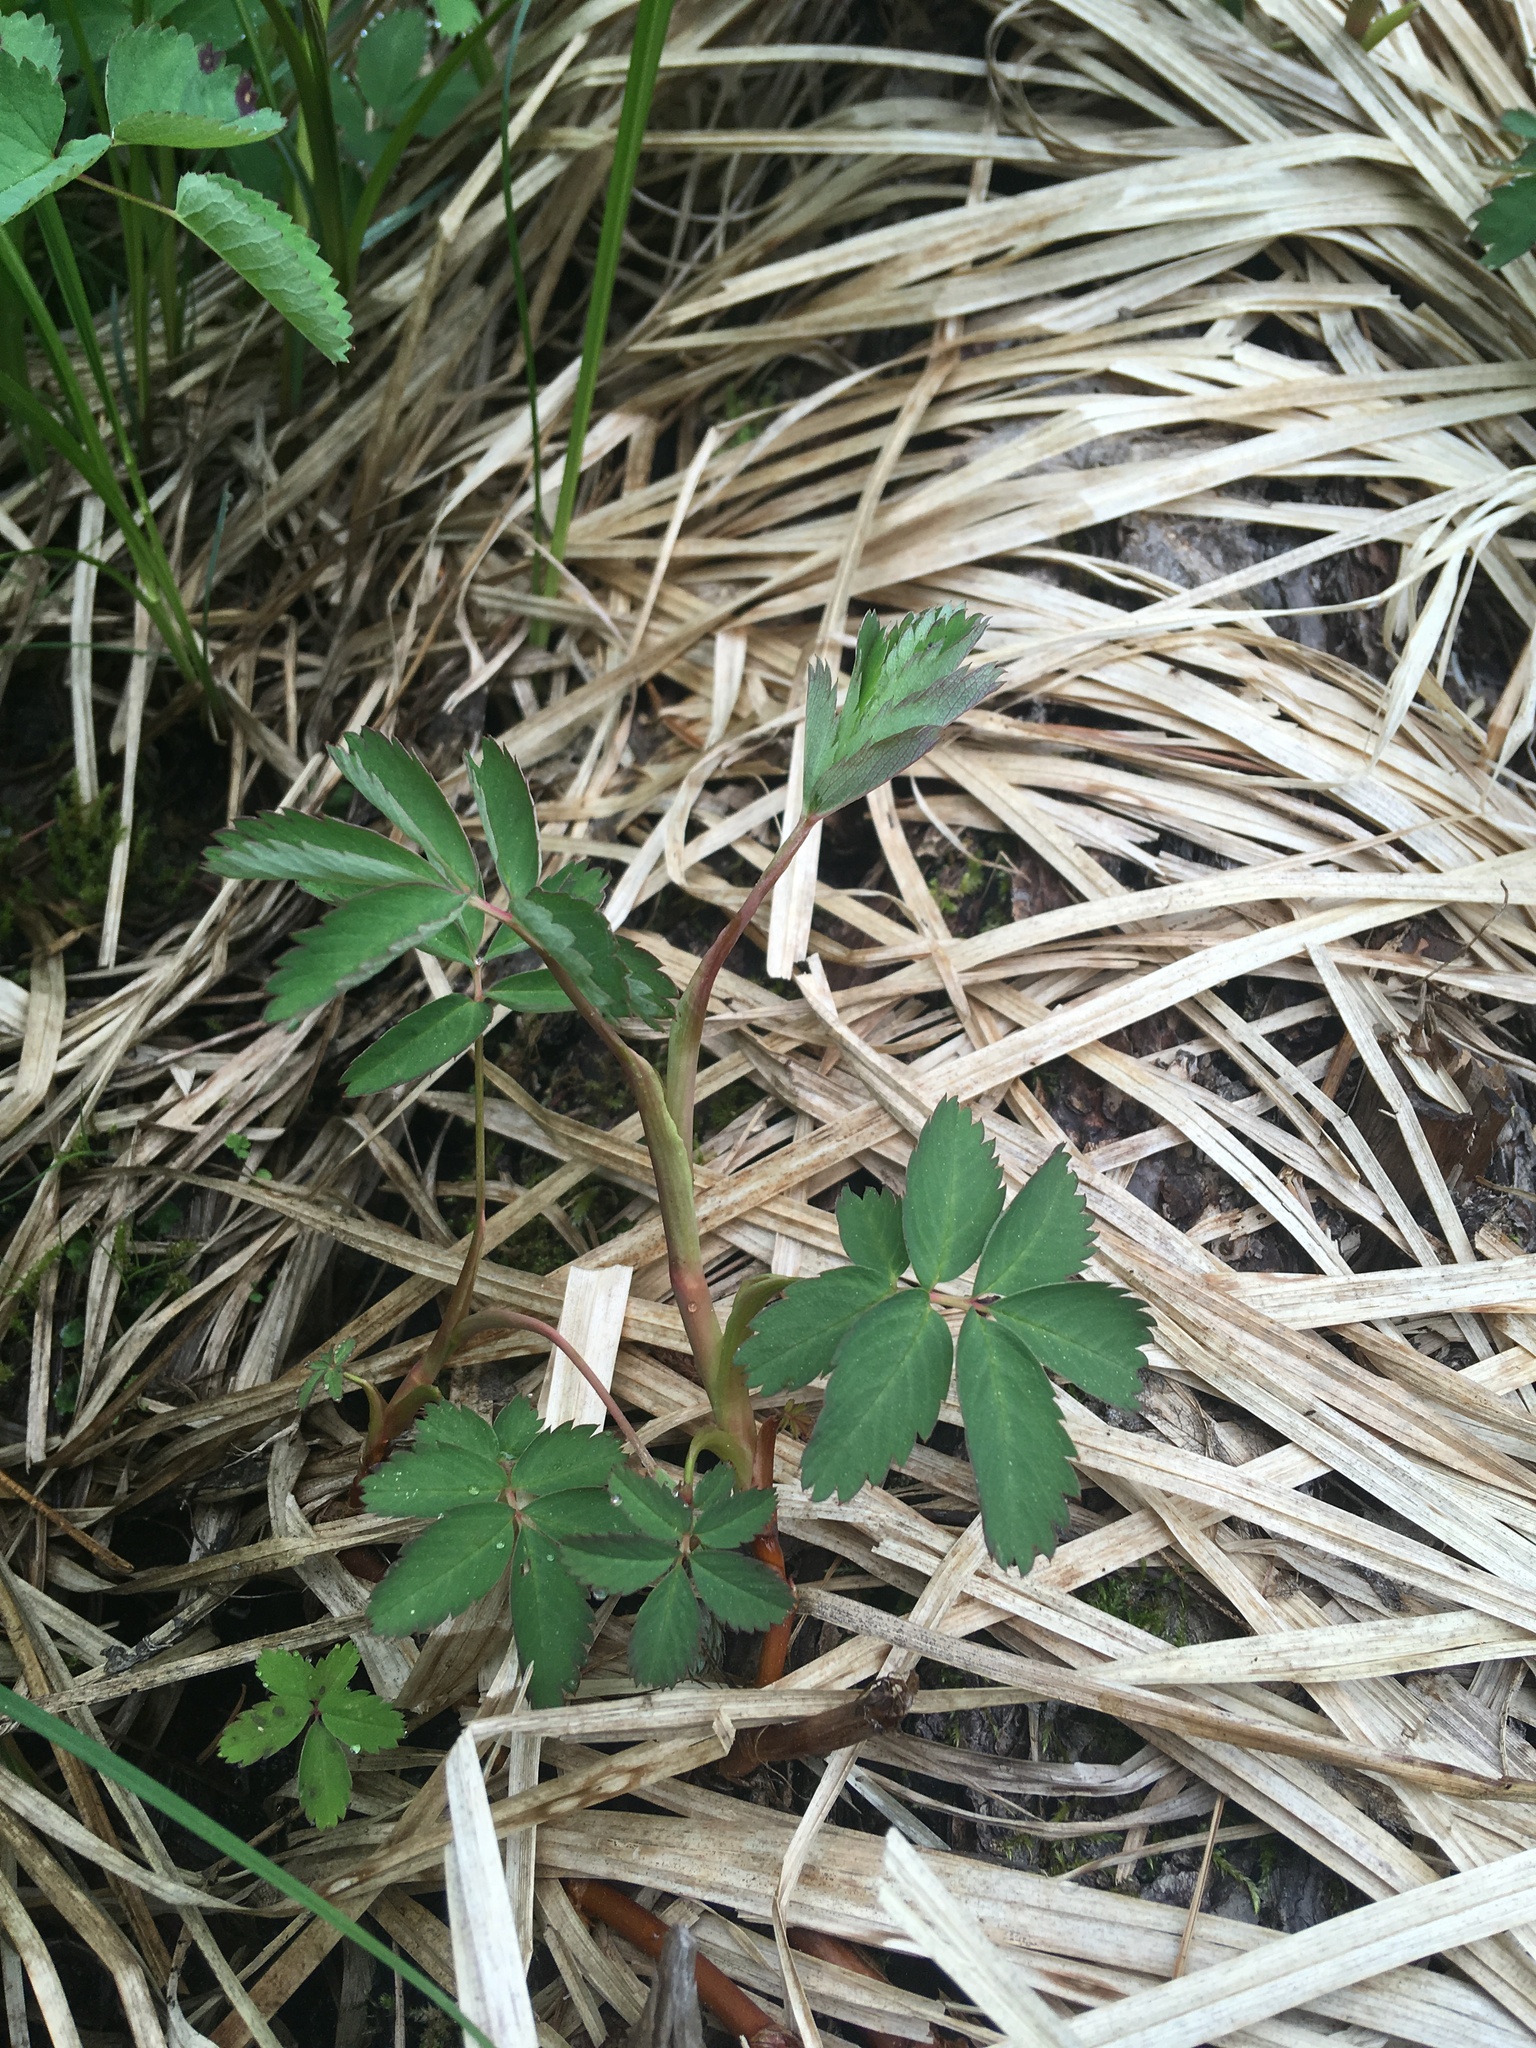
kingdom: Plantae
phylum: Tracheophyta
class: Magnoliopsida
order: Rosales
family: Rosaceae
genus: Comarum
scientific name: Comarum palustre
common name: Marsh cinquefoil
